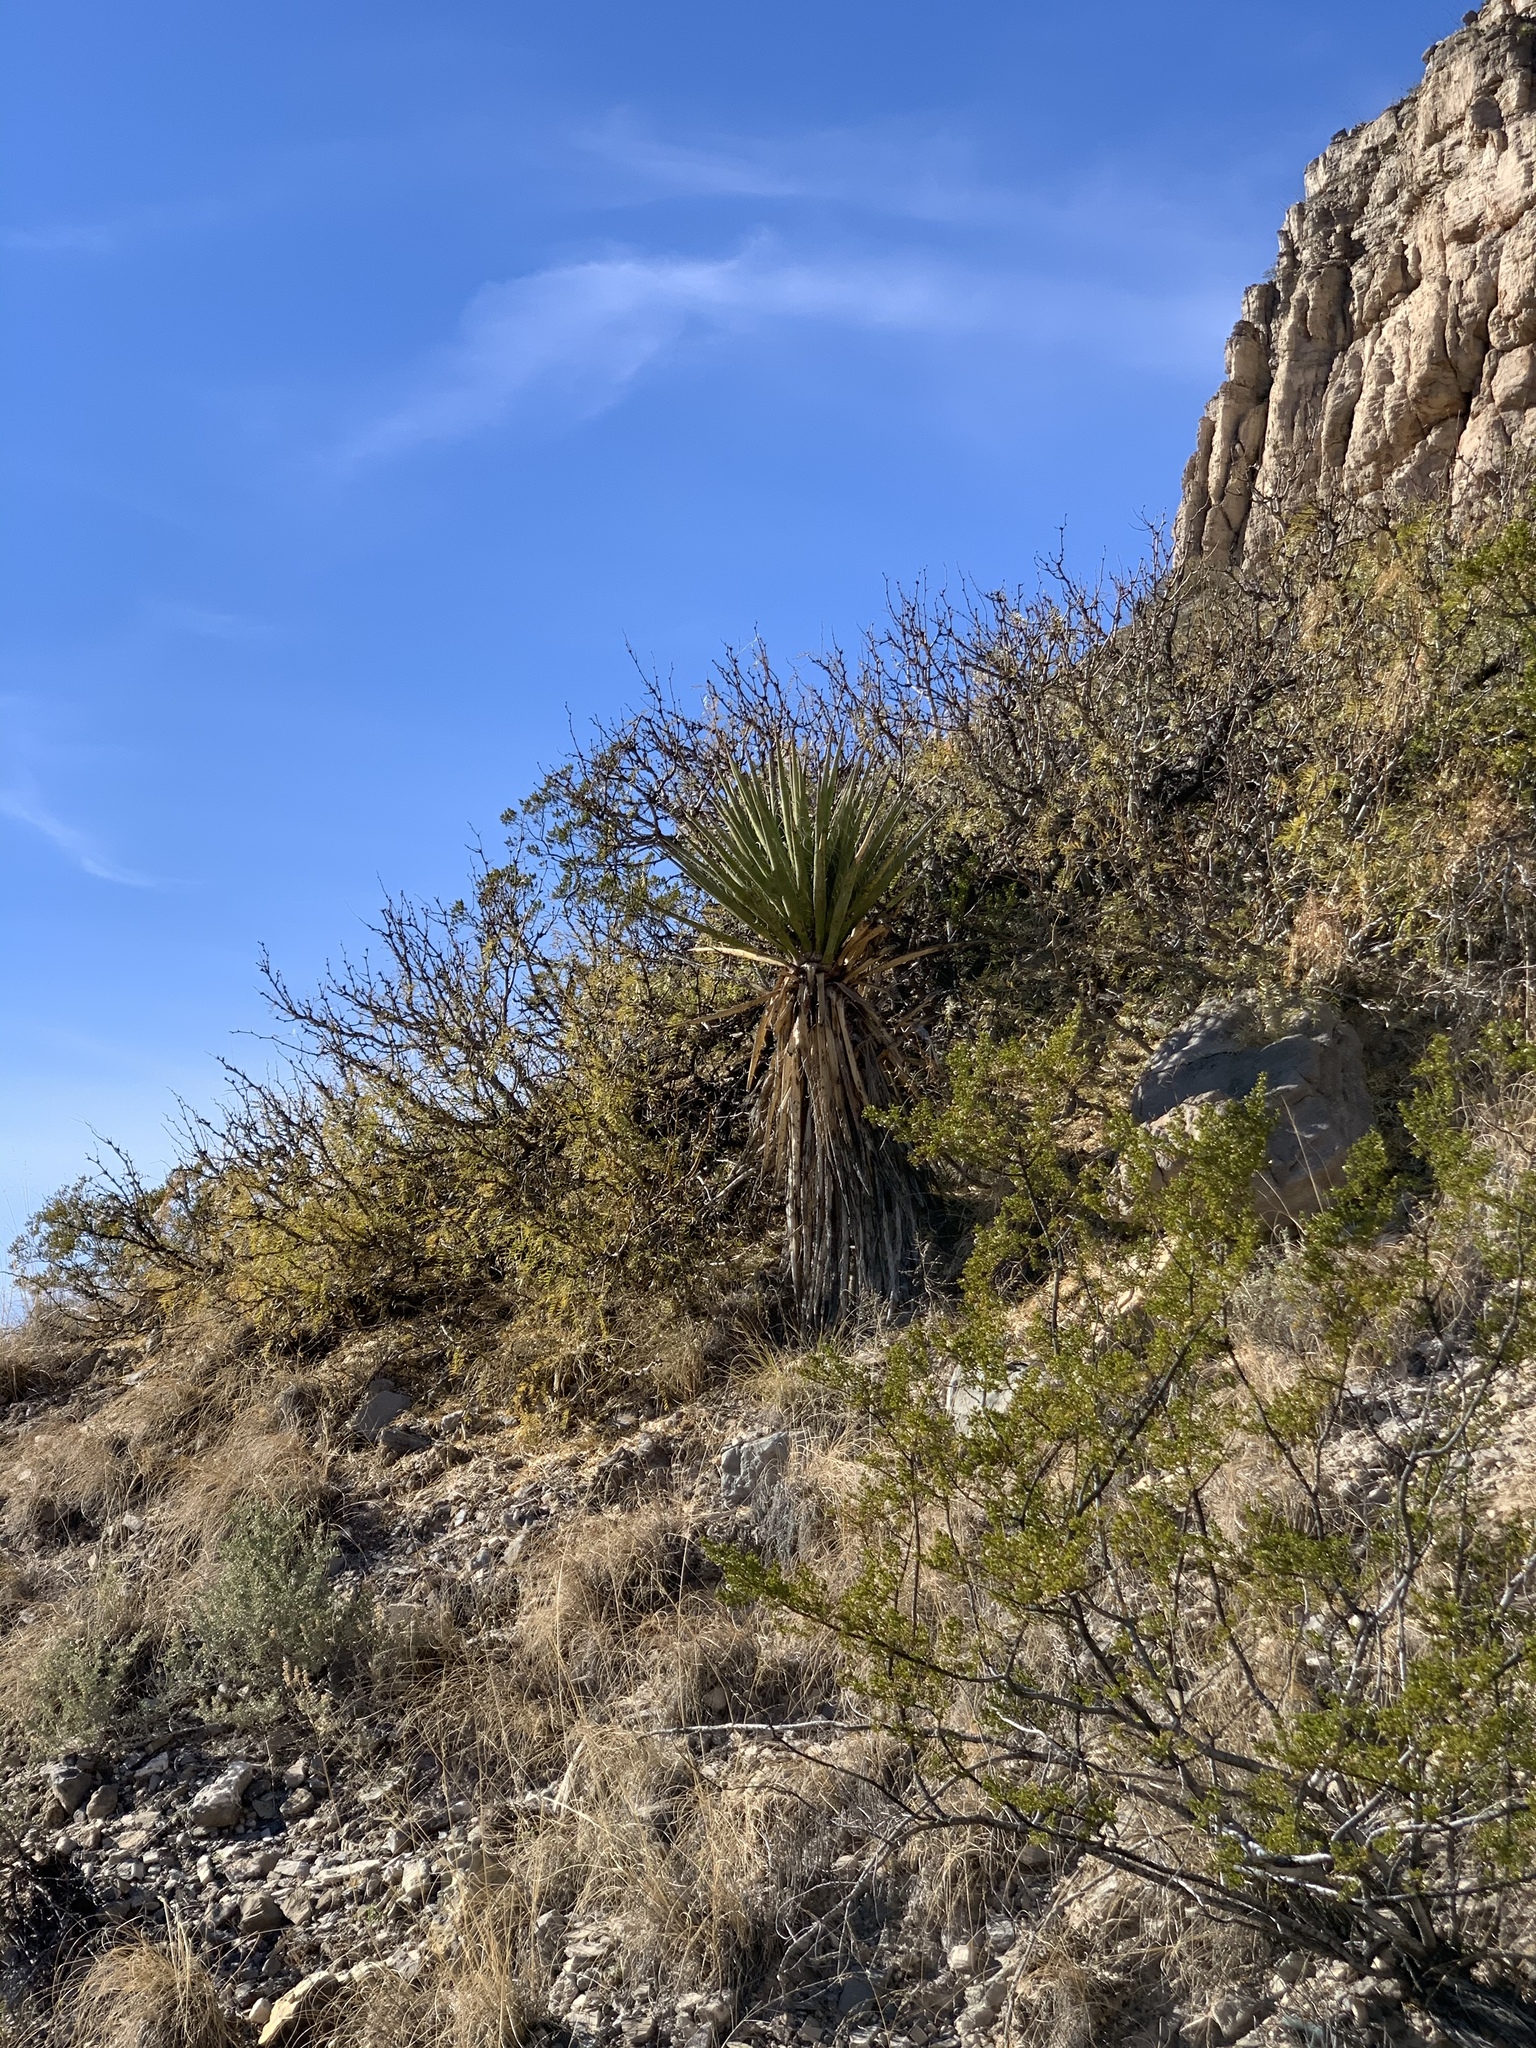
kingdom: Plantae
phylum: Tracheophyta
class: Liliopsida
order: Asparagales
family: Asparagaceae
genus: Yucca
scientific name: Yucca treculiana
